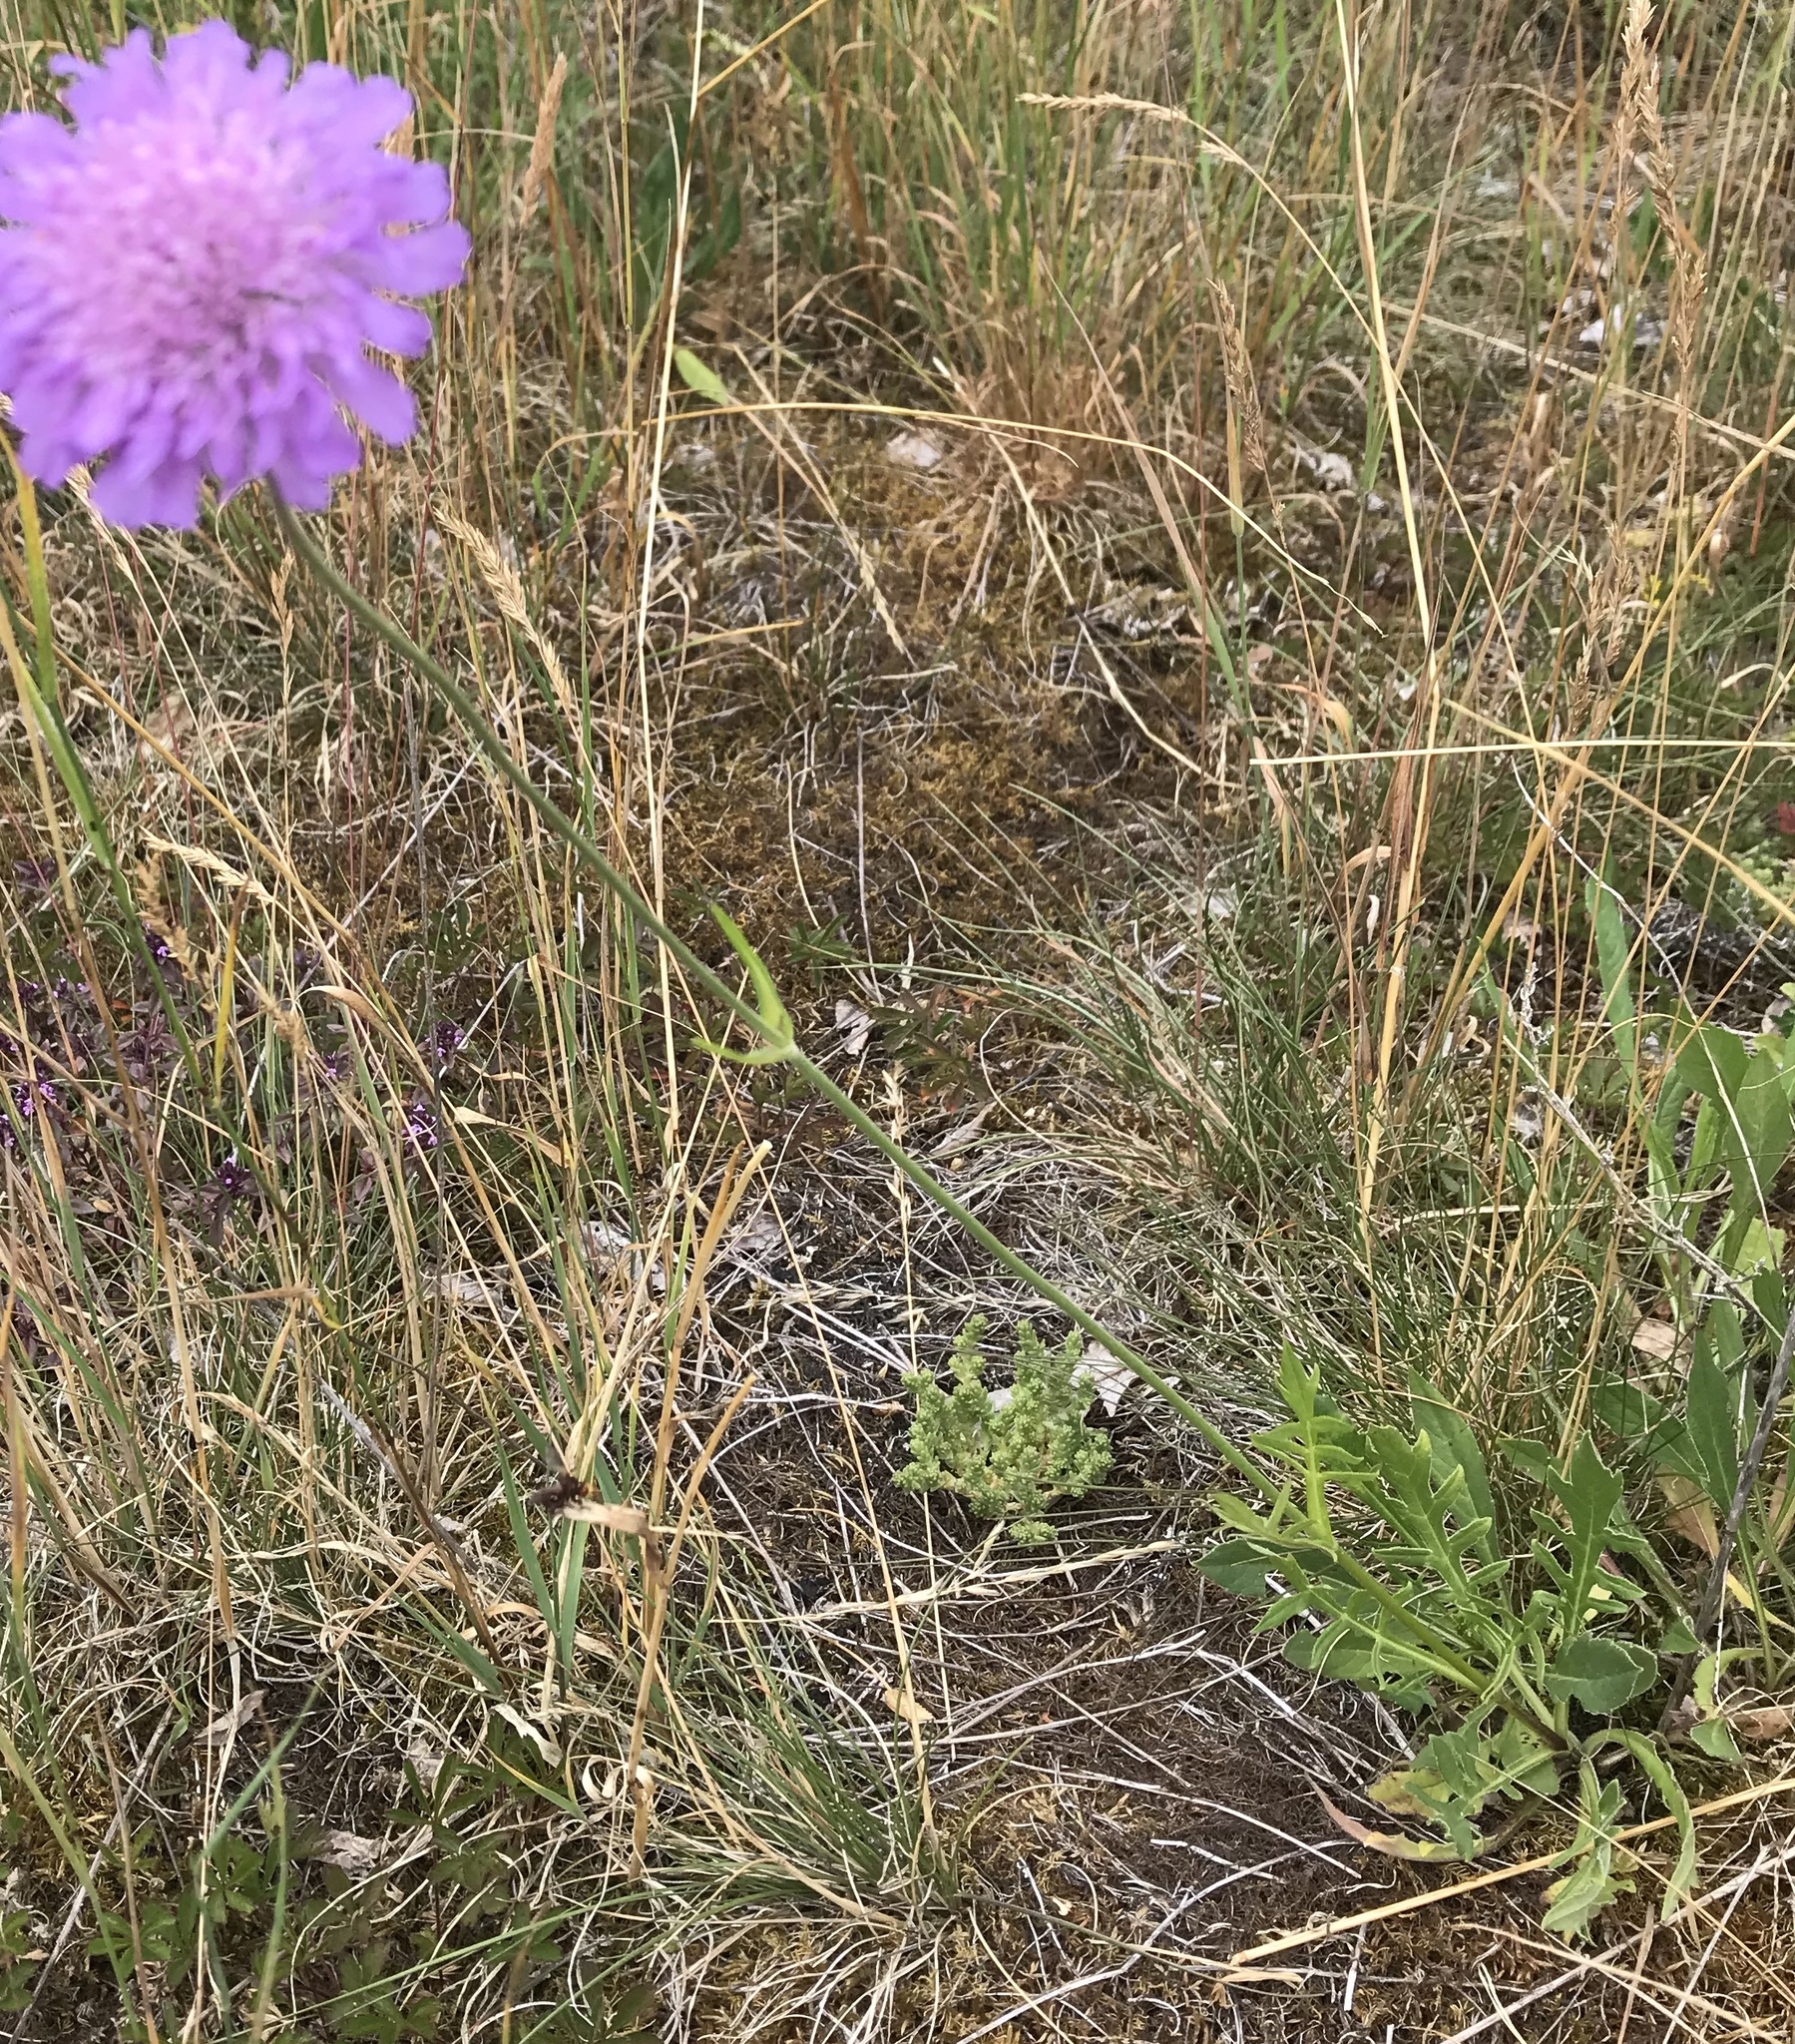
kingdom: Plantae
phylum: Tracheophyta
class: Magnoliopsida
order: Dipsacales
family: Caprifoliaceae
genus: Knautia
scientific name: Knautia arvensis
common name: Field scabiosa
